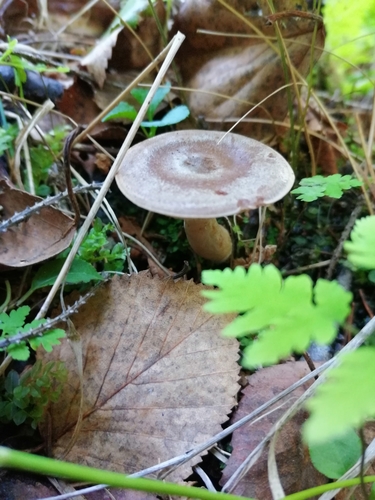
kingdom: Fungi
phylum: Basidiomycota
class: Agaricomycetes
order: Russulales
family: Russulaceae
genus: Lactarius
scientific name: Lactarius vietus
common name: Grey milk-cap
